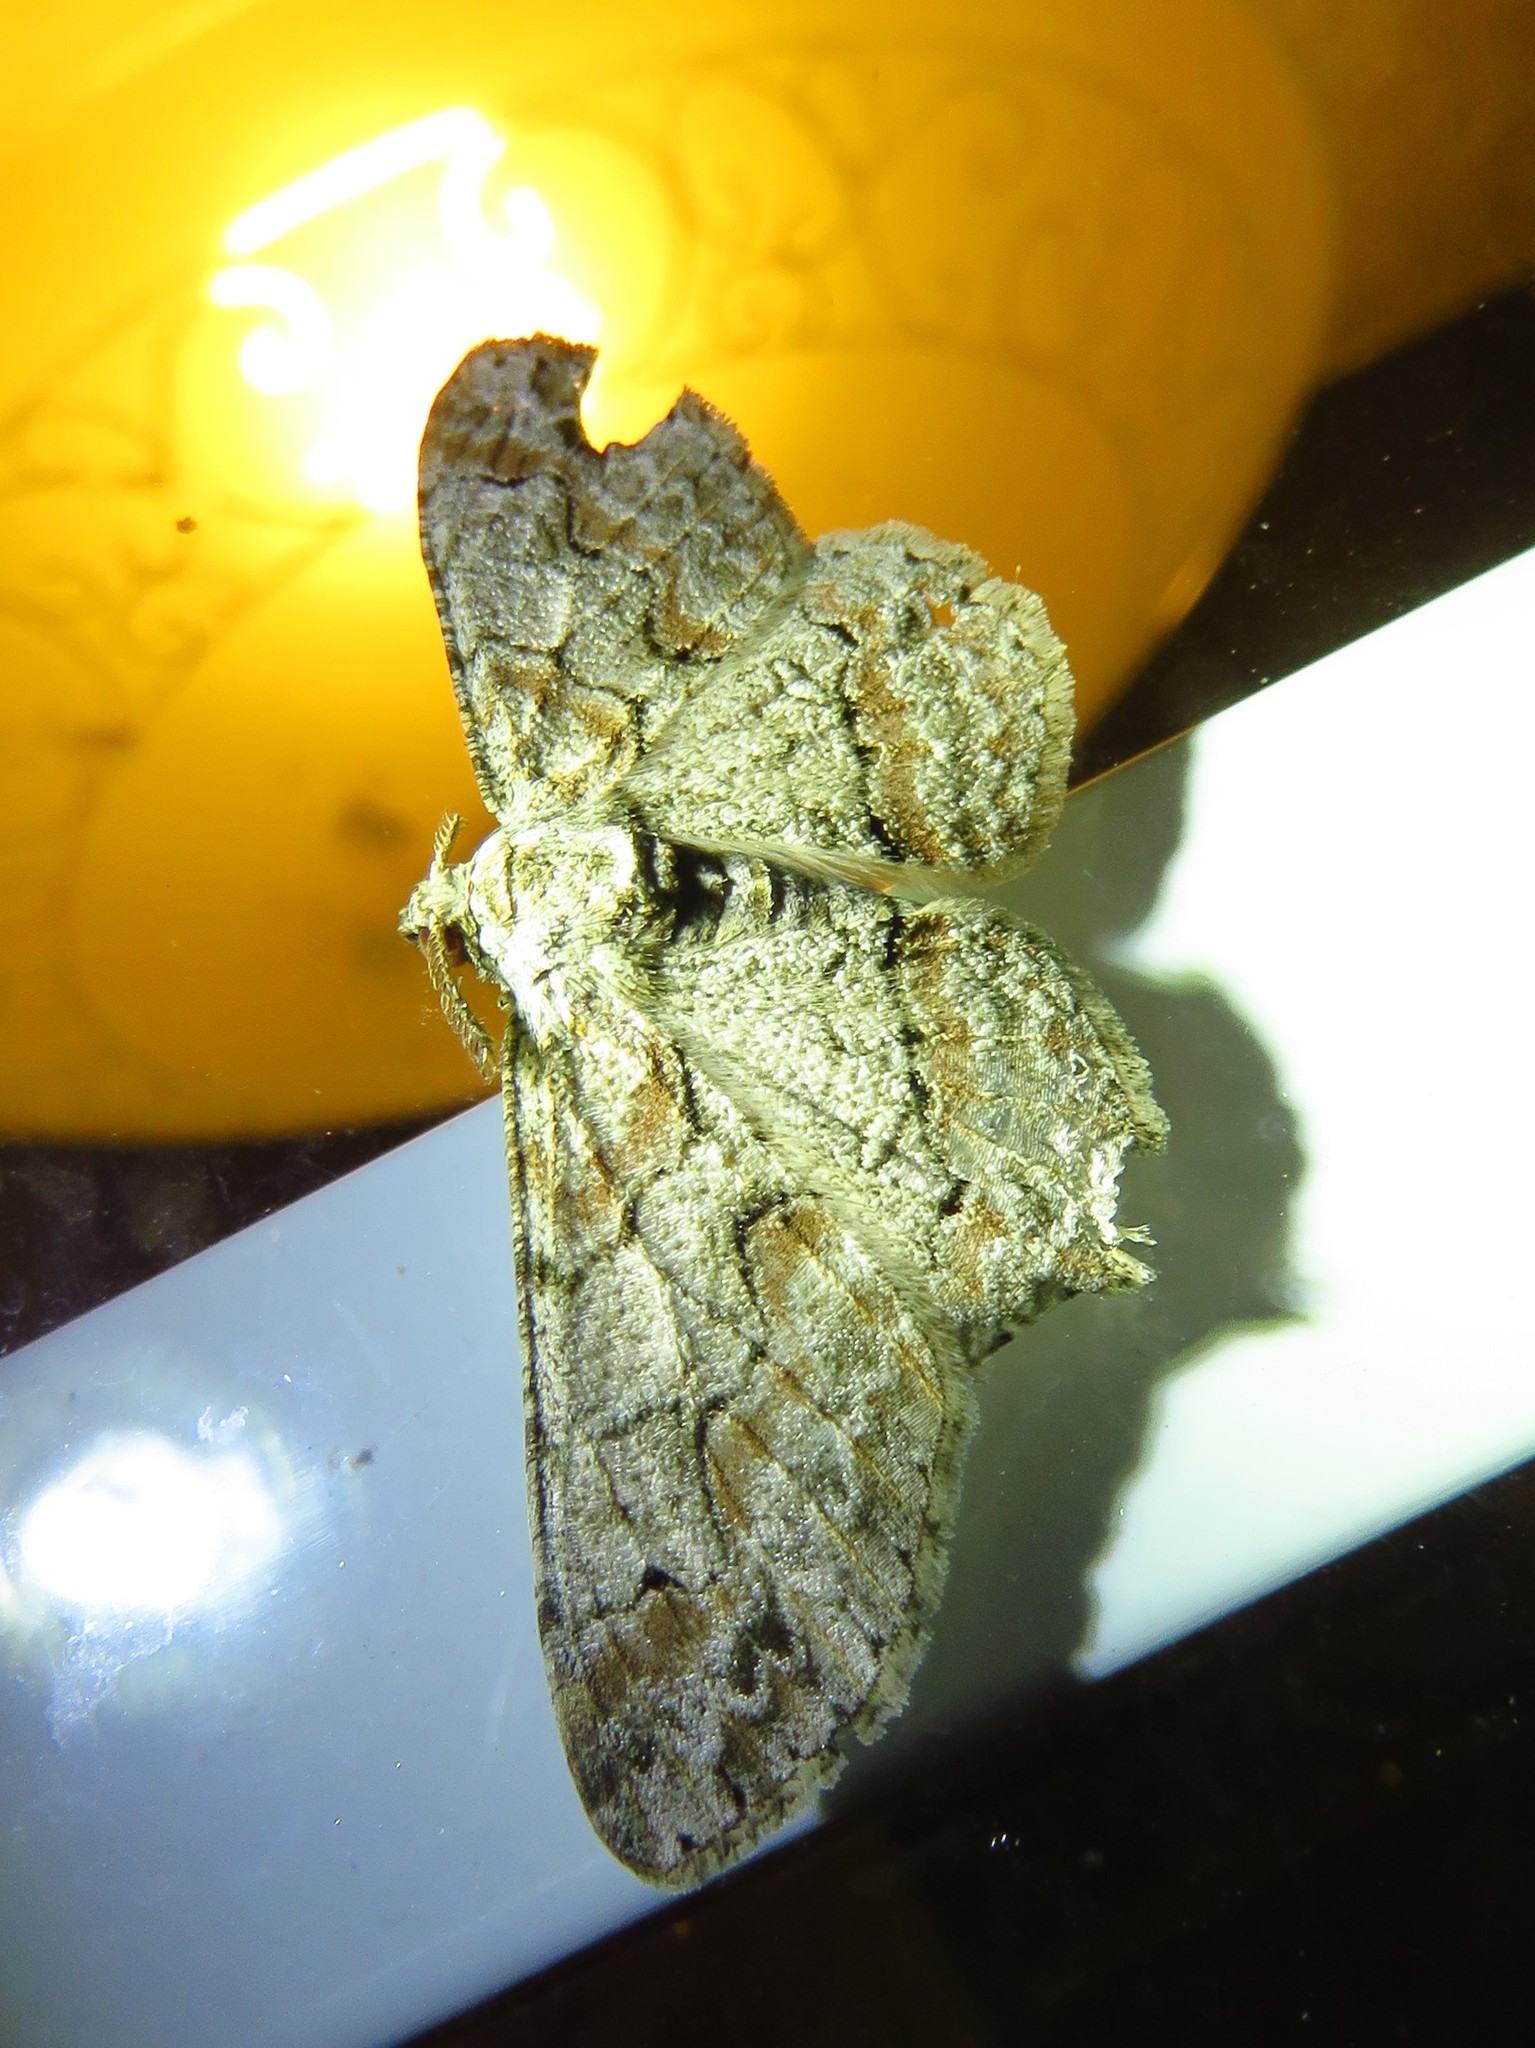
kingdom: Animalia
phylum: Arthropoda
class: Insecta
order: Lepidoptera
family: Geometridae
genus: Iridopsis
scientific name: Iridopsis defectaria
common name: Brown-shaded gray
